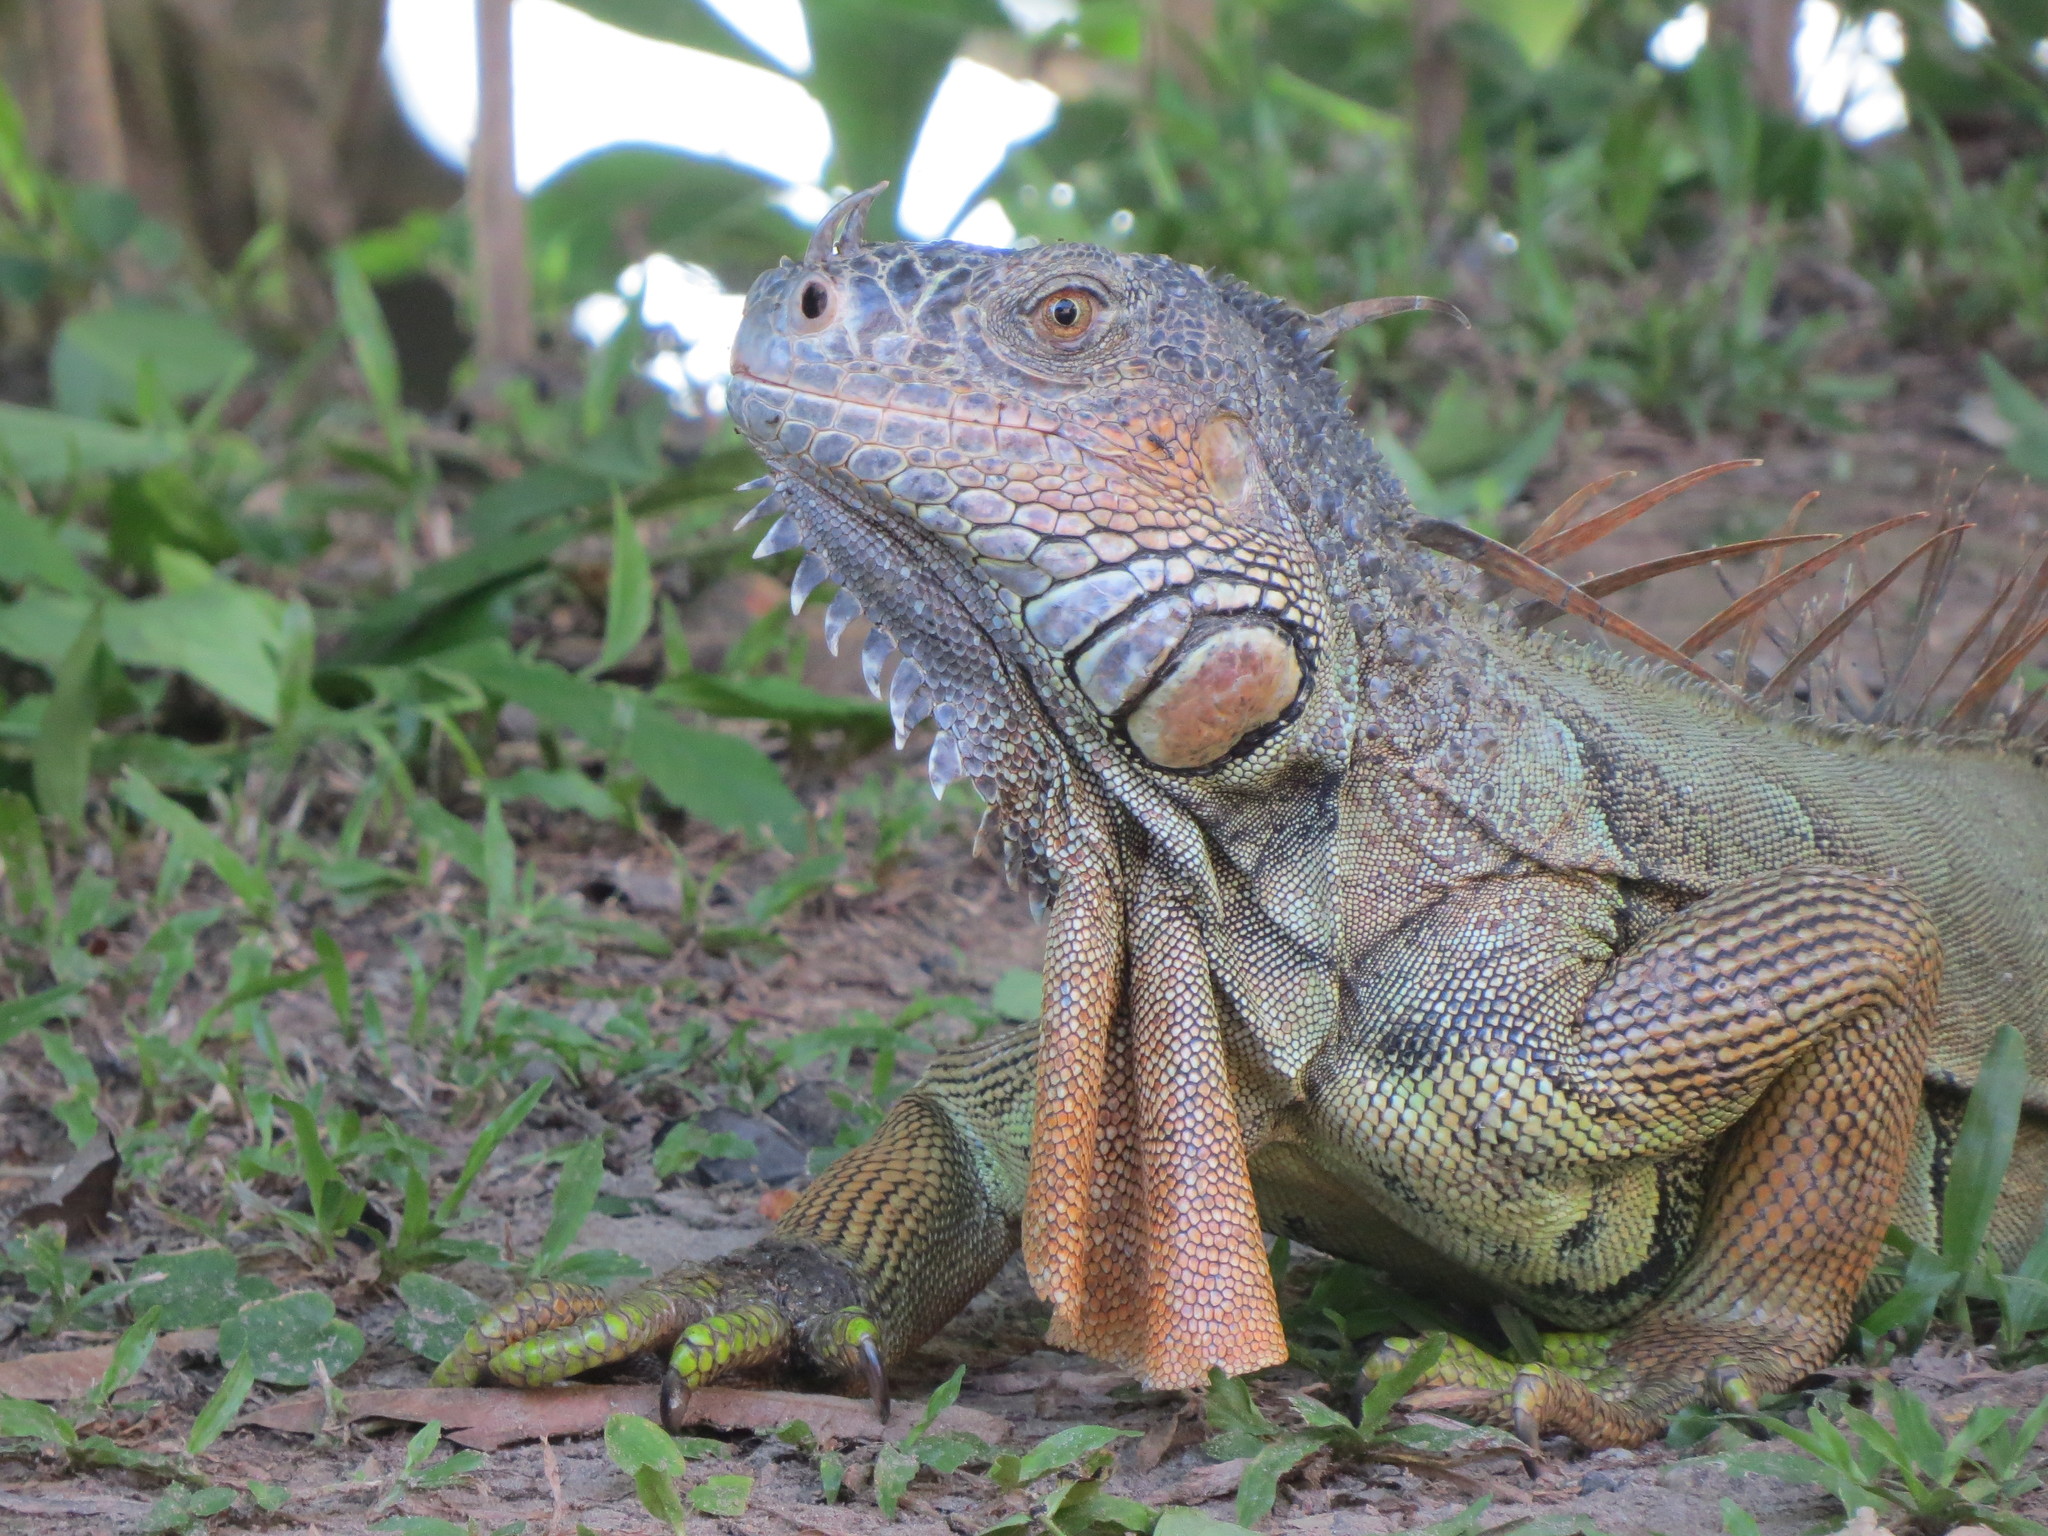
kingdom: Animalia
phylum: Chordata
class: Squamata
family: Iguanidae
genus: Iguana
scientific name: Iguana iguana
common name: Green iguana
